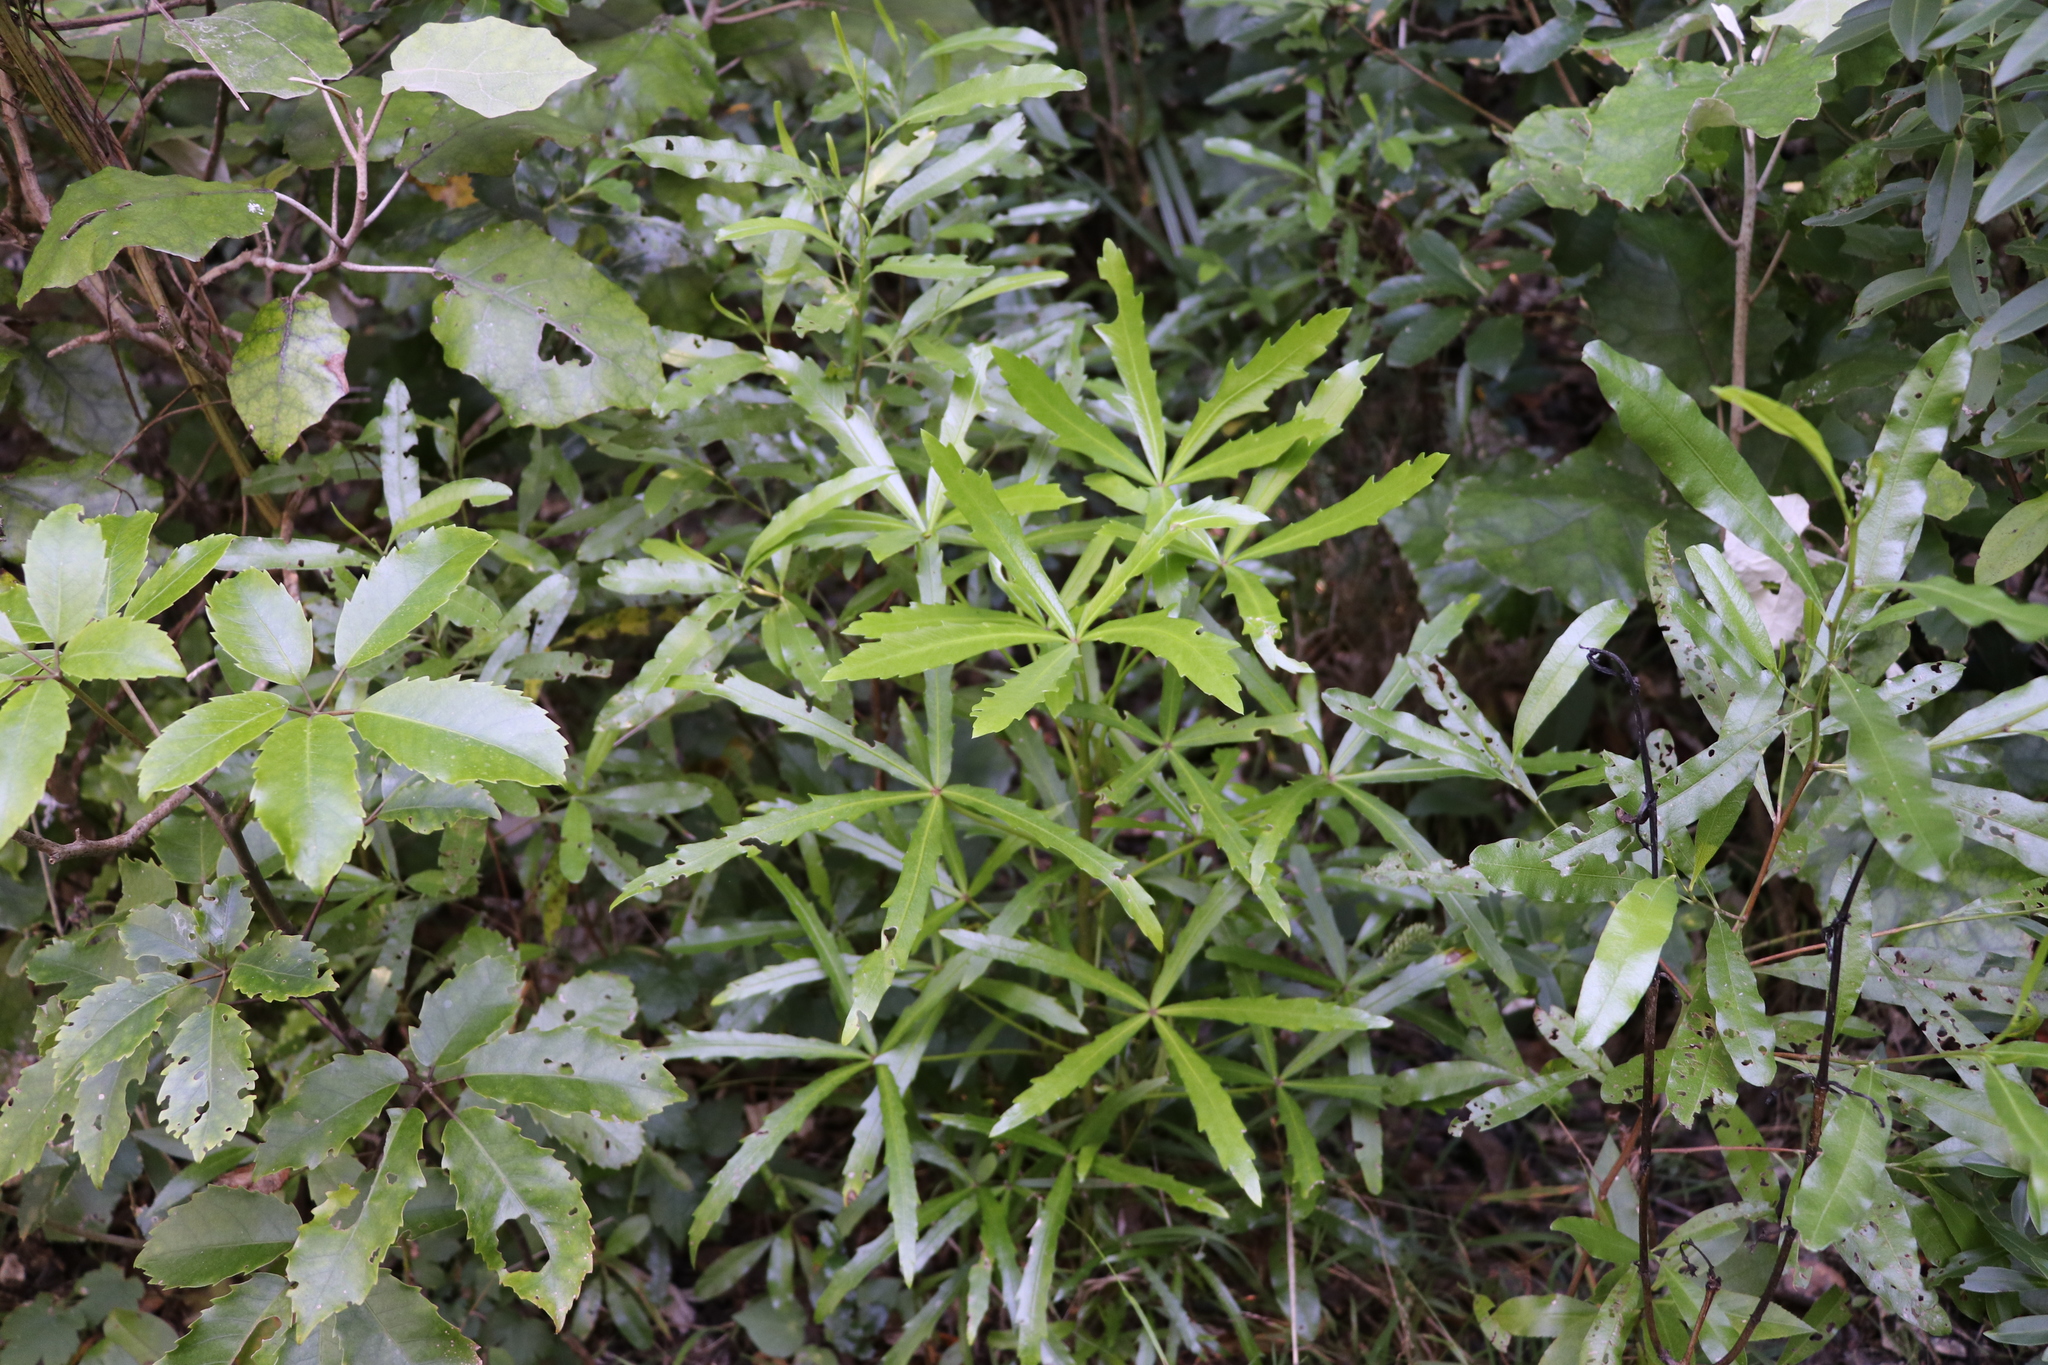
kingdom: Plantae
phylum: Tracheophyta
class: Magnoliopsida
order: Apiales
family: Araliaceae
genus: Pseudopanax
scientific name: Pseudopanax
